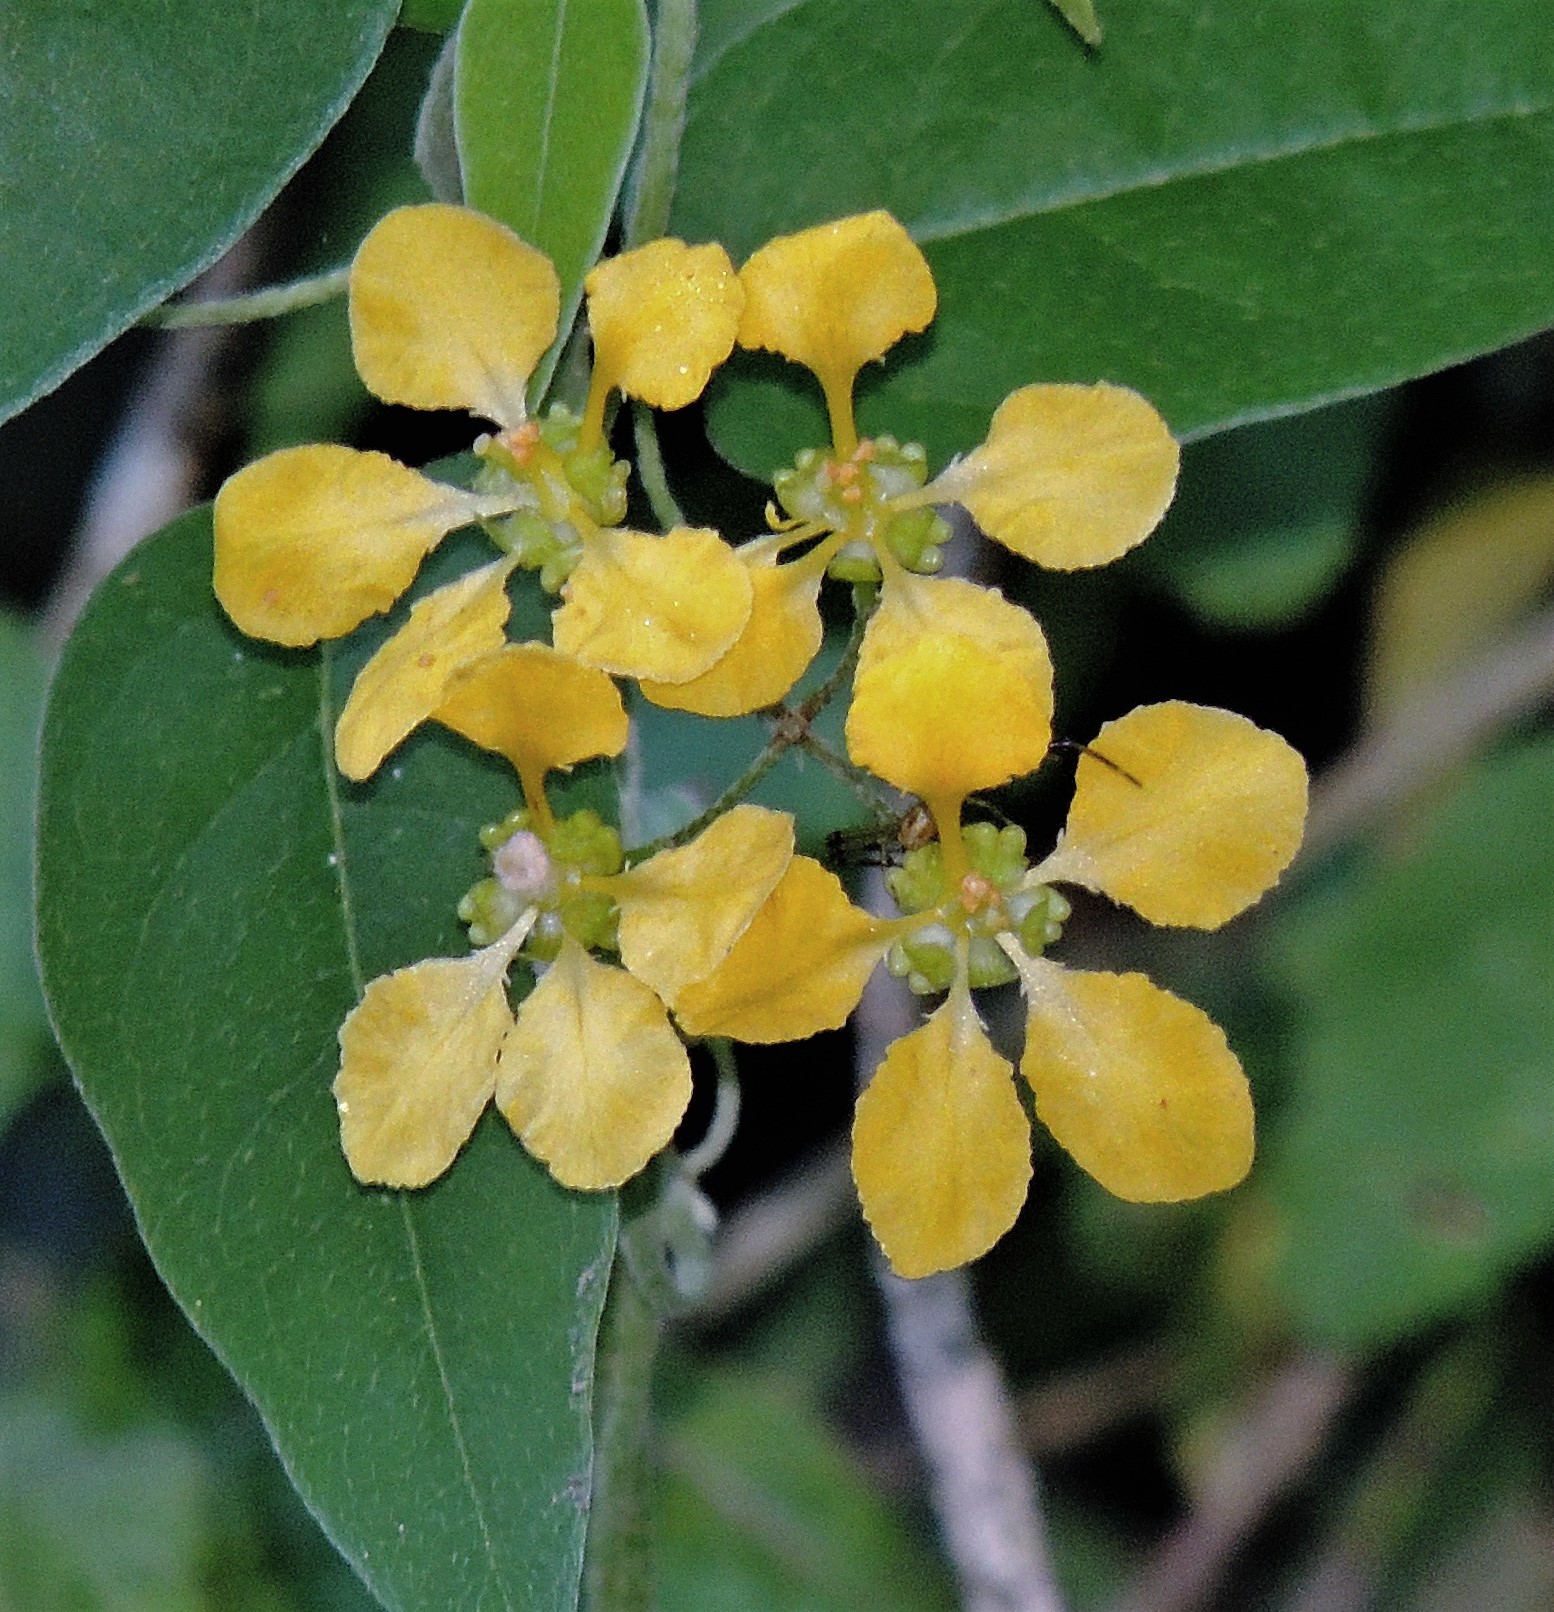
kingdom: Plantae
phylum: Tracheophyta
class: Magnoliopsida
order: Malpighiales
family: Malpighiaceae
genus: Janusia
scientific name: Janusia guaranitica
